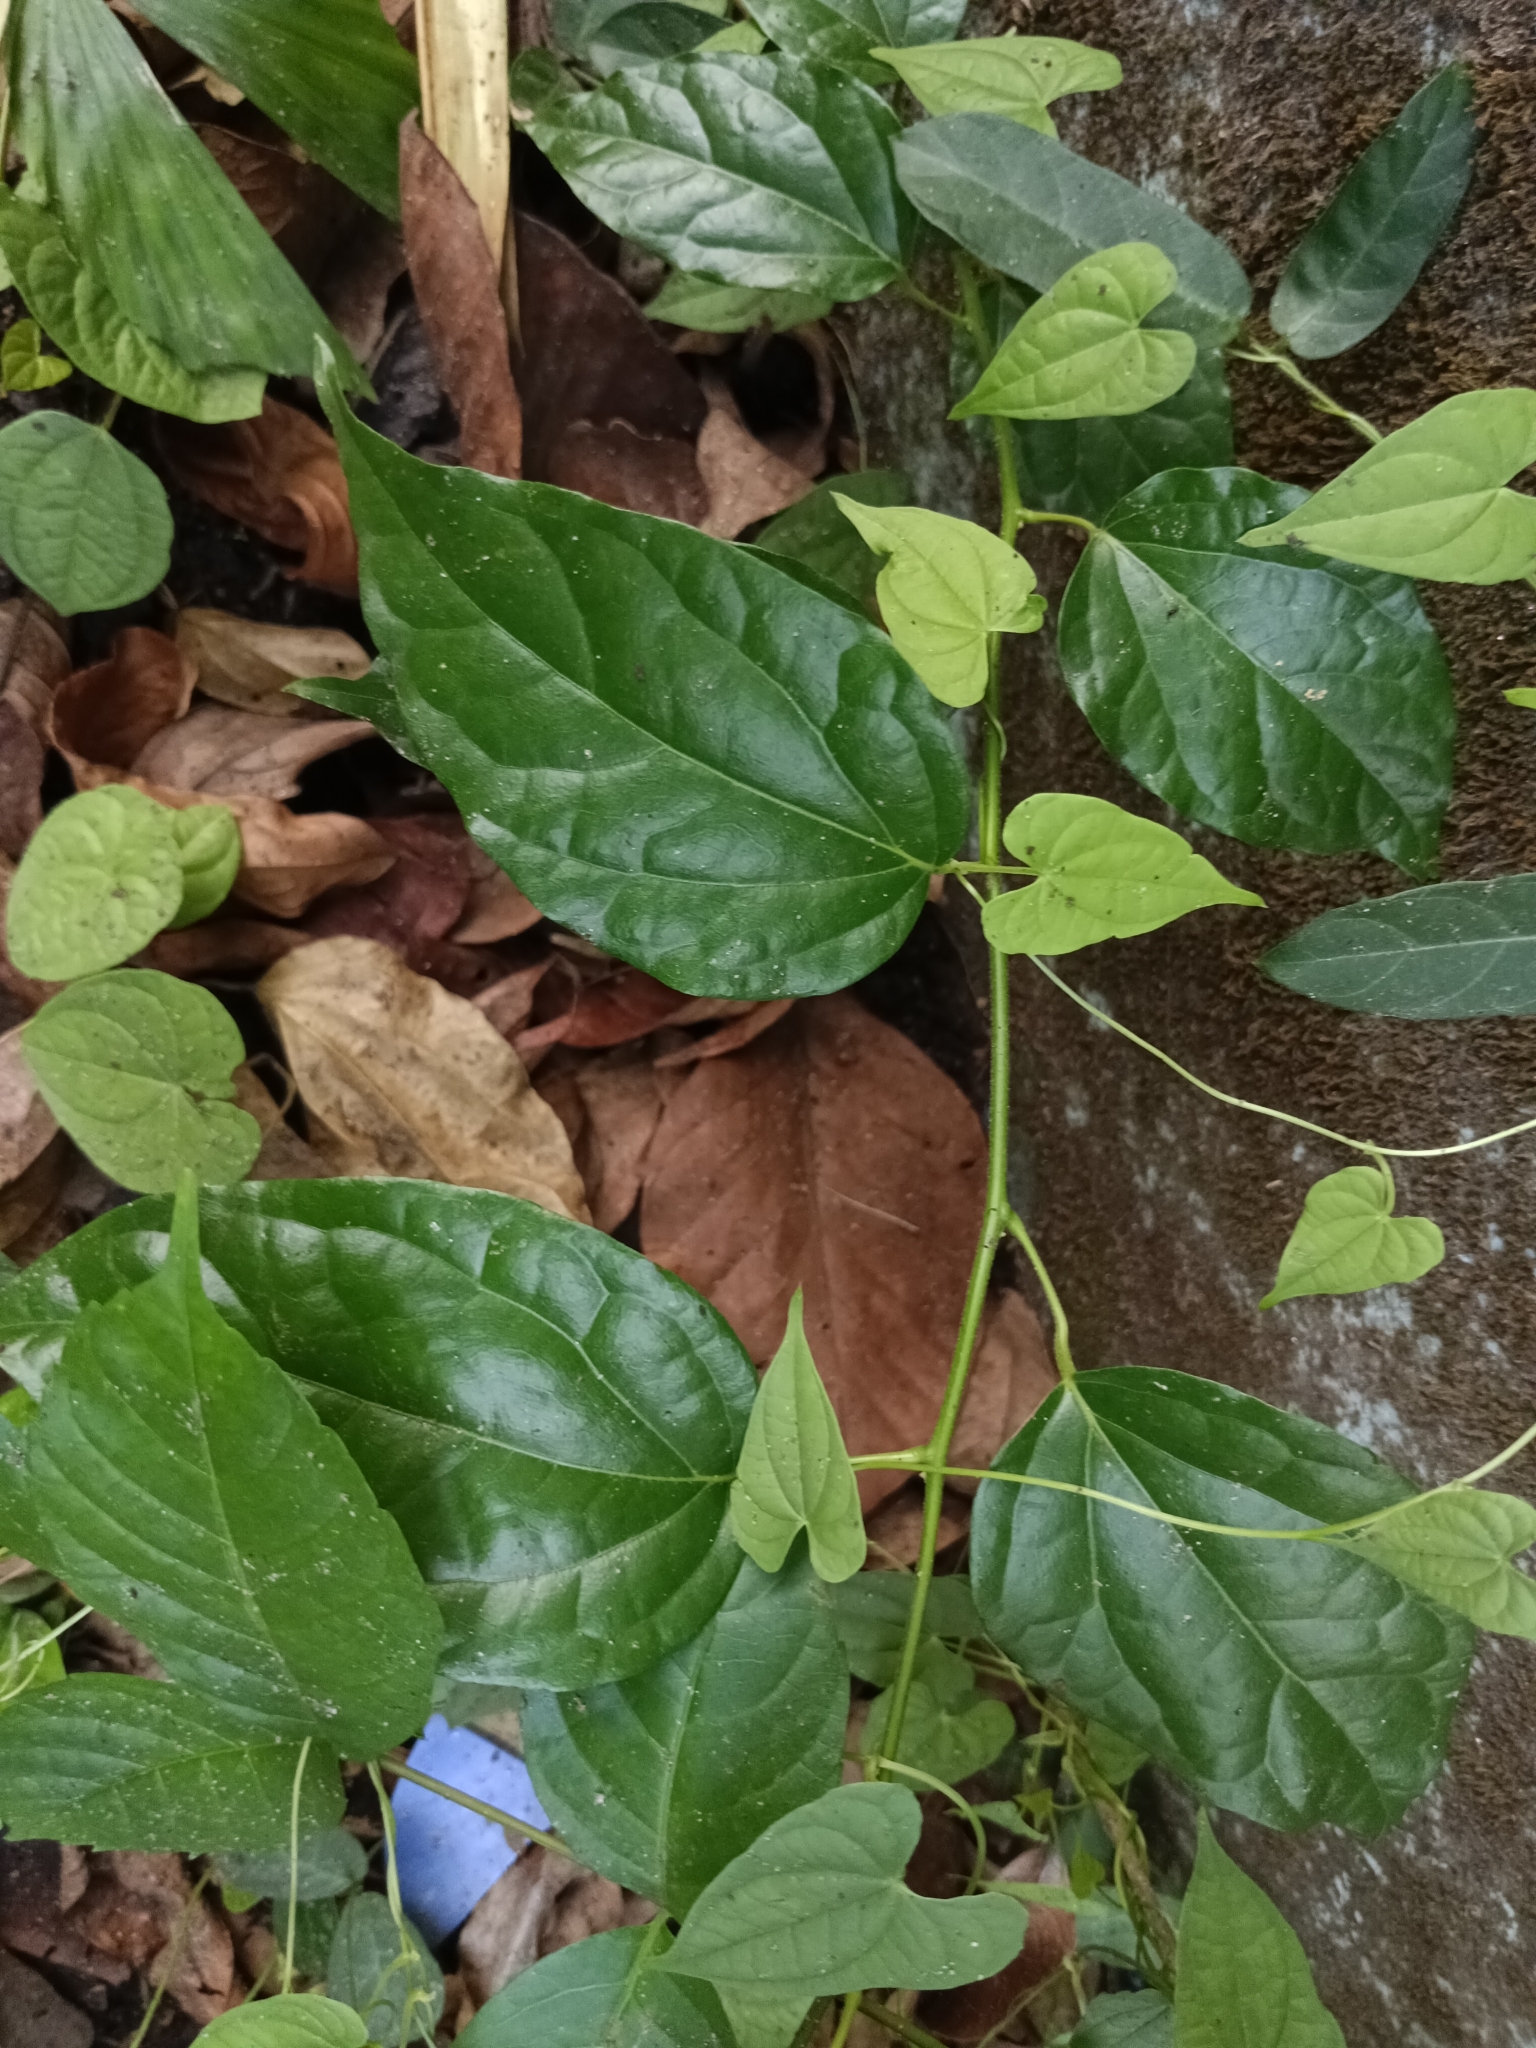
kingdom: Plantae
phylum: Tracheophyta
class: Magnoliopsida
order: Ranunculales
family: Menispermaceae
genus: Tiliacora
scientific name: Tiliacora acuminata
